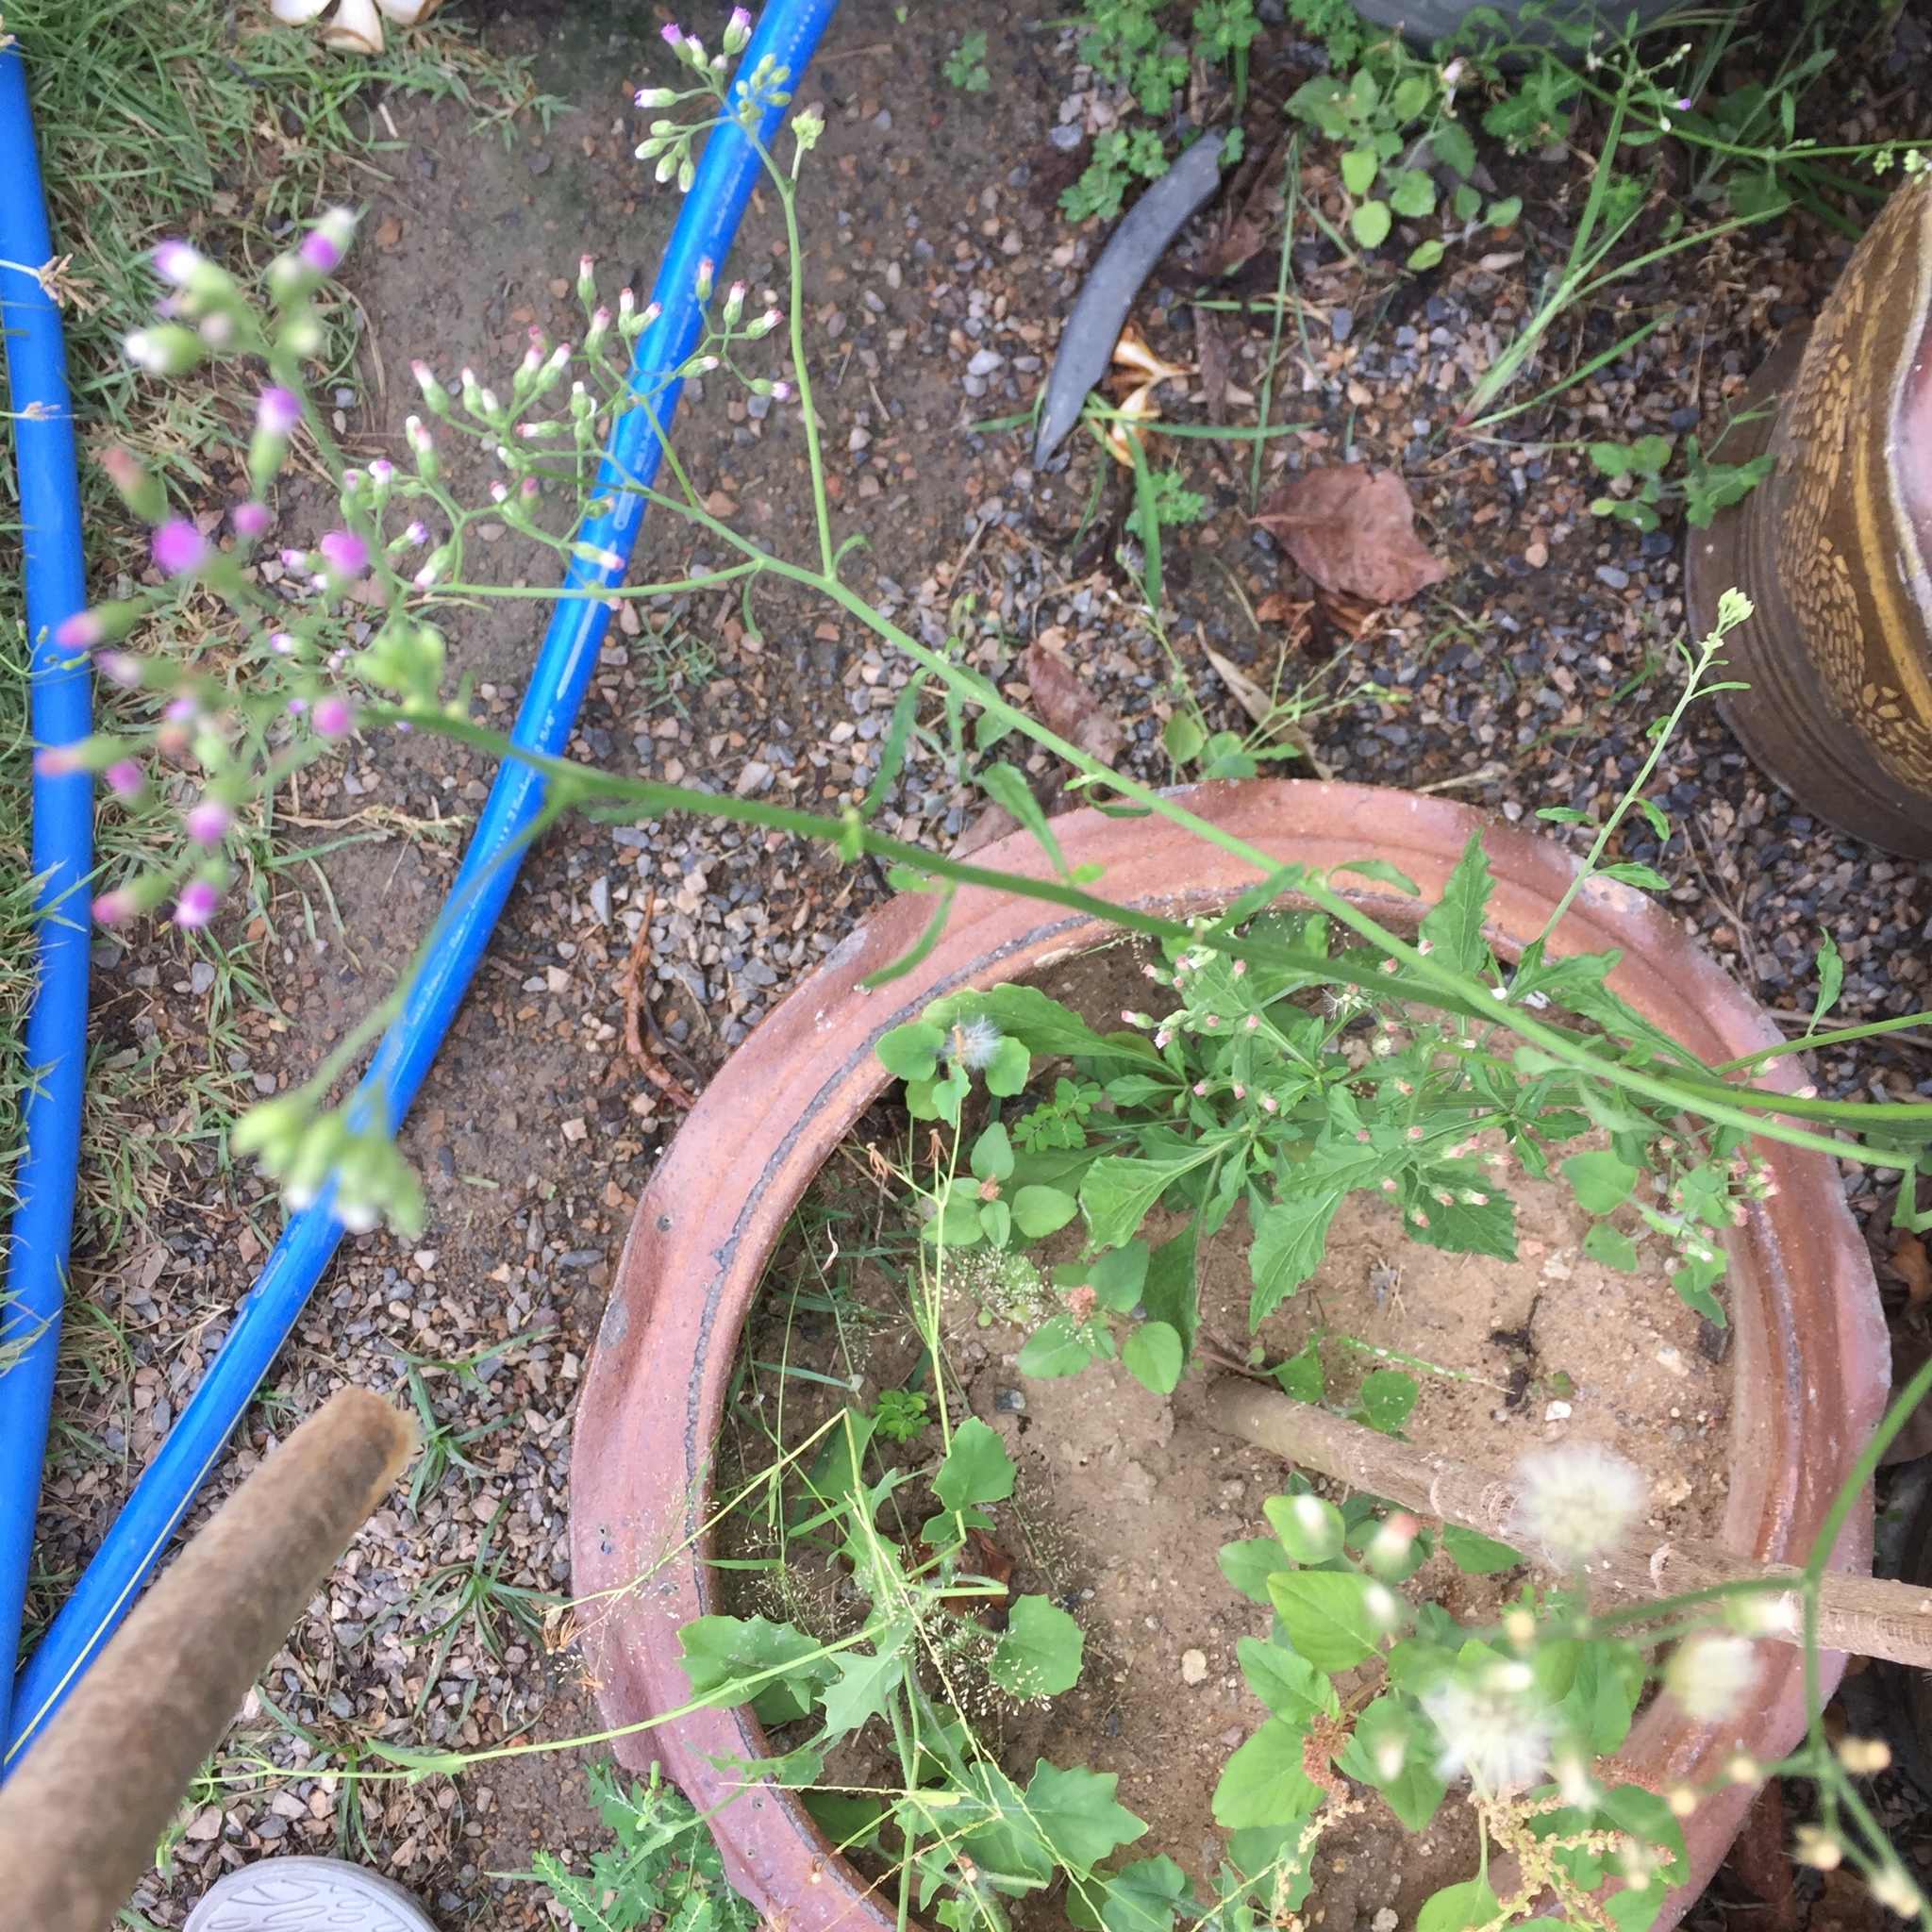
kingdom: Plantae
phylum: Tracheophyta
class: Magnoliopsida
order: Asterales
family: Asteraceae
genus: Cyanthillium
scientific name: Cyanthillium cinereum
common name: Little ironweed
